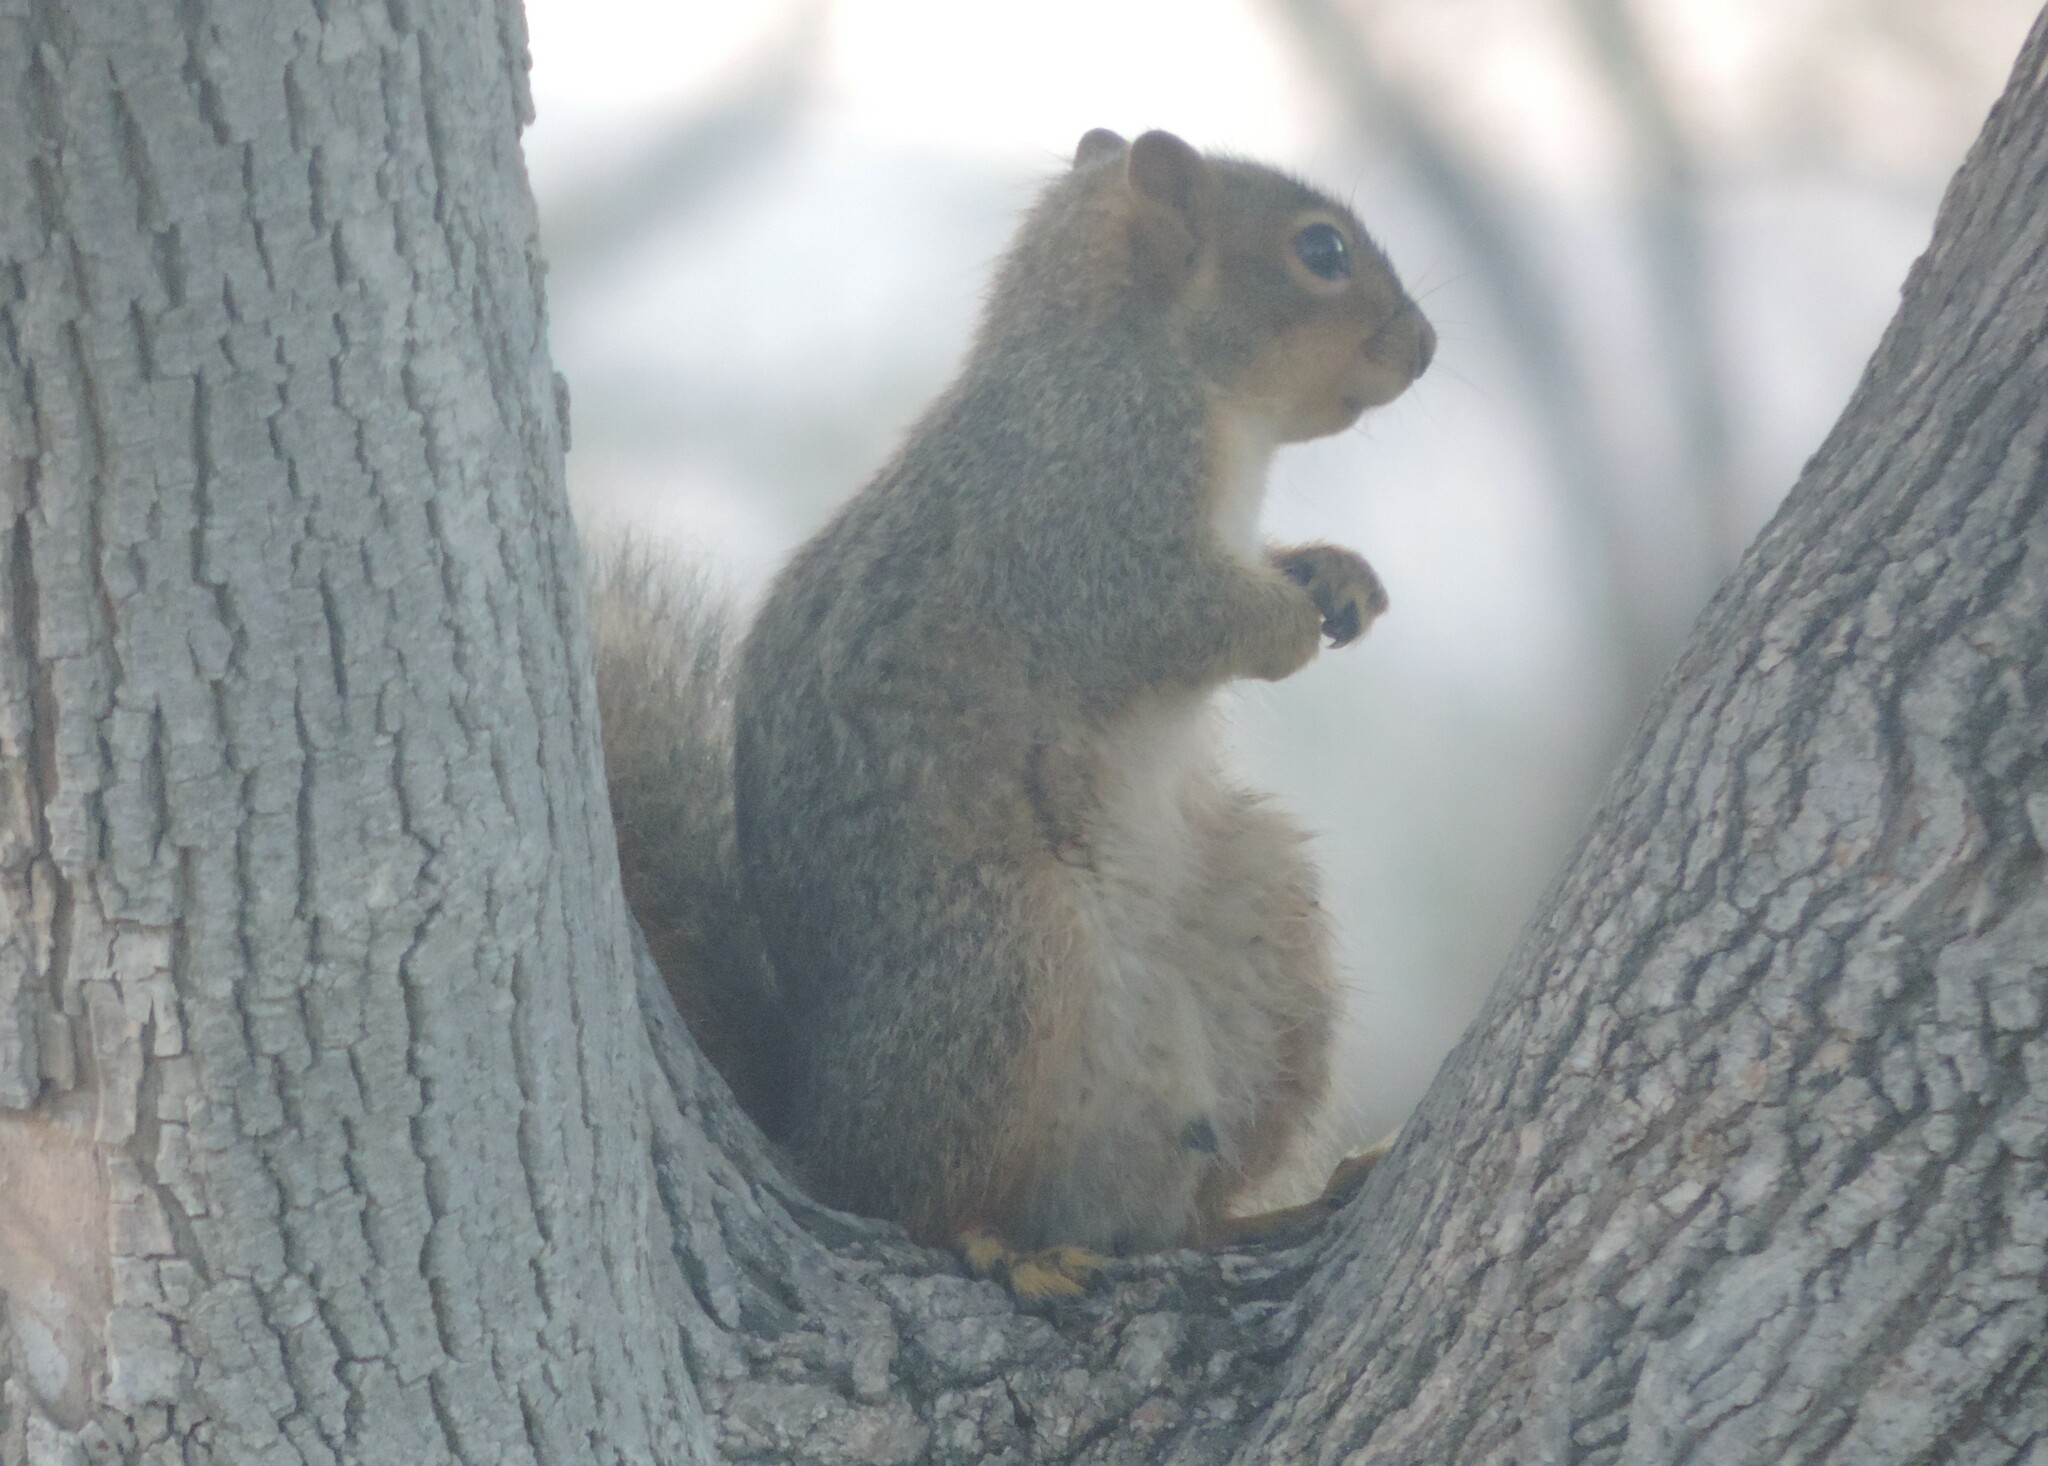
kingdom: Animalia
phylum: Chordata
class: Mammalia
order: Rodentia
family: Sciuridae
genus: Sciurus
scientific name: Sciurus niger
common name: Fox squirrel
